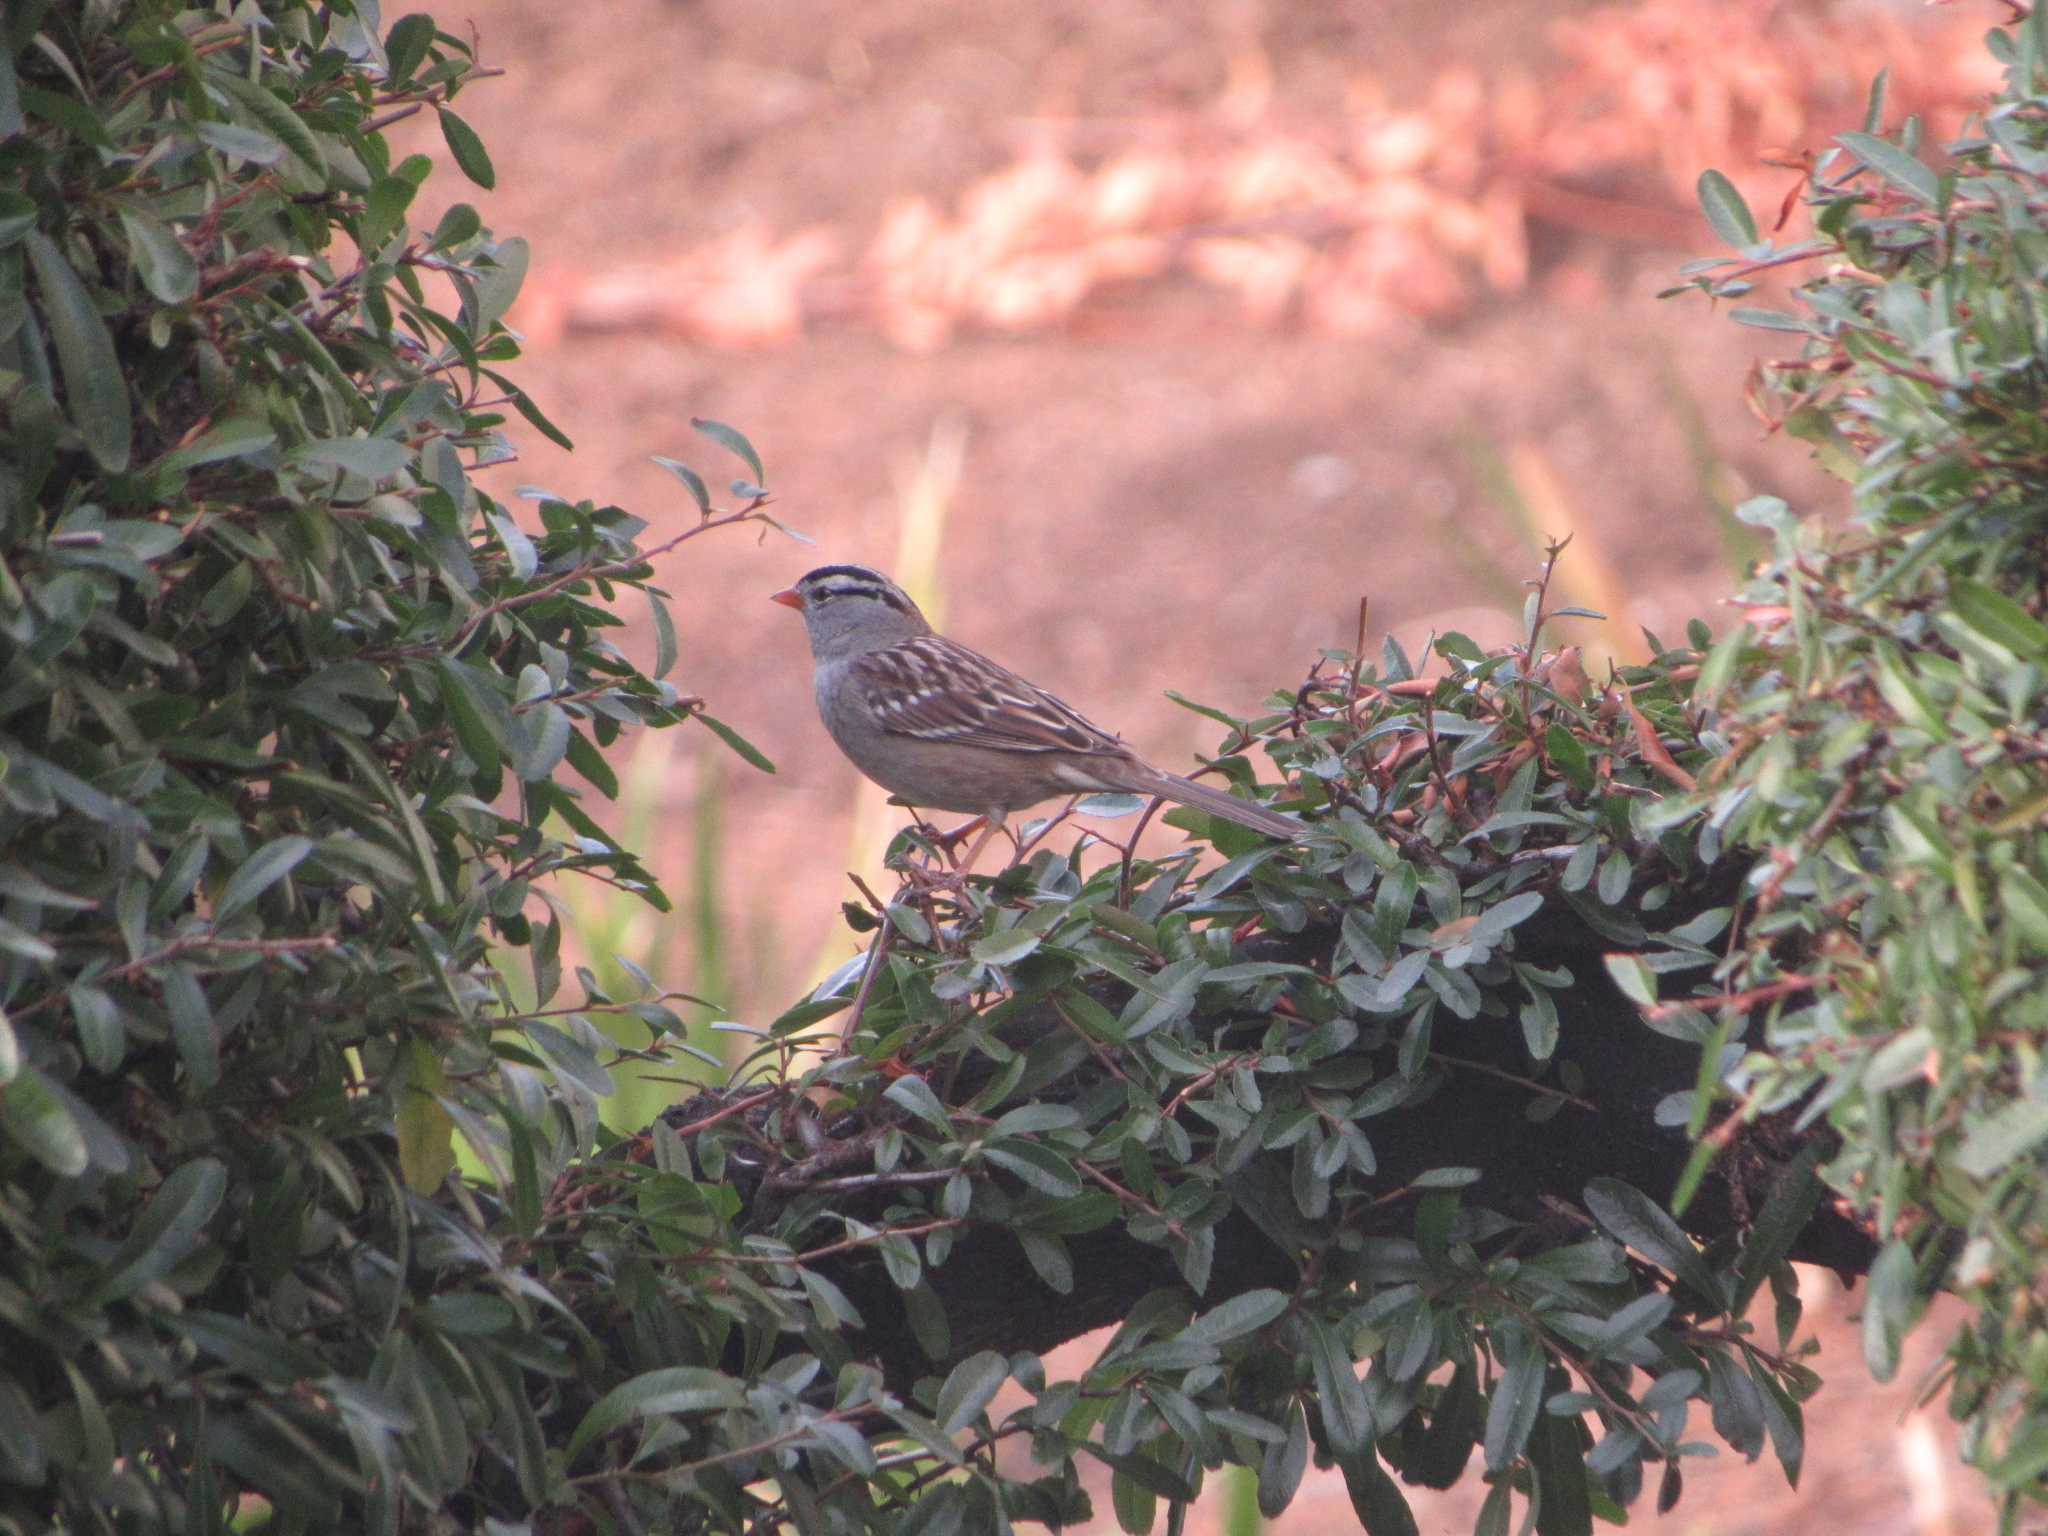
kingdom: Animalia
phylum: Chordata
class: Aves
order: Passeriformes
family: Passerellidae
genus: Zonotrichia
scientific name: Zonotrichia leucophrys
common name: White-crowned sparrow
